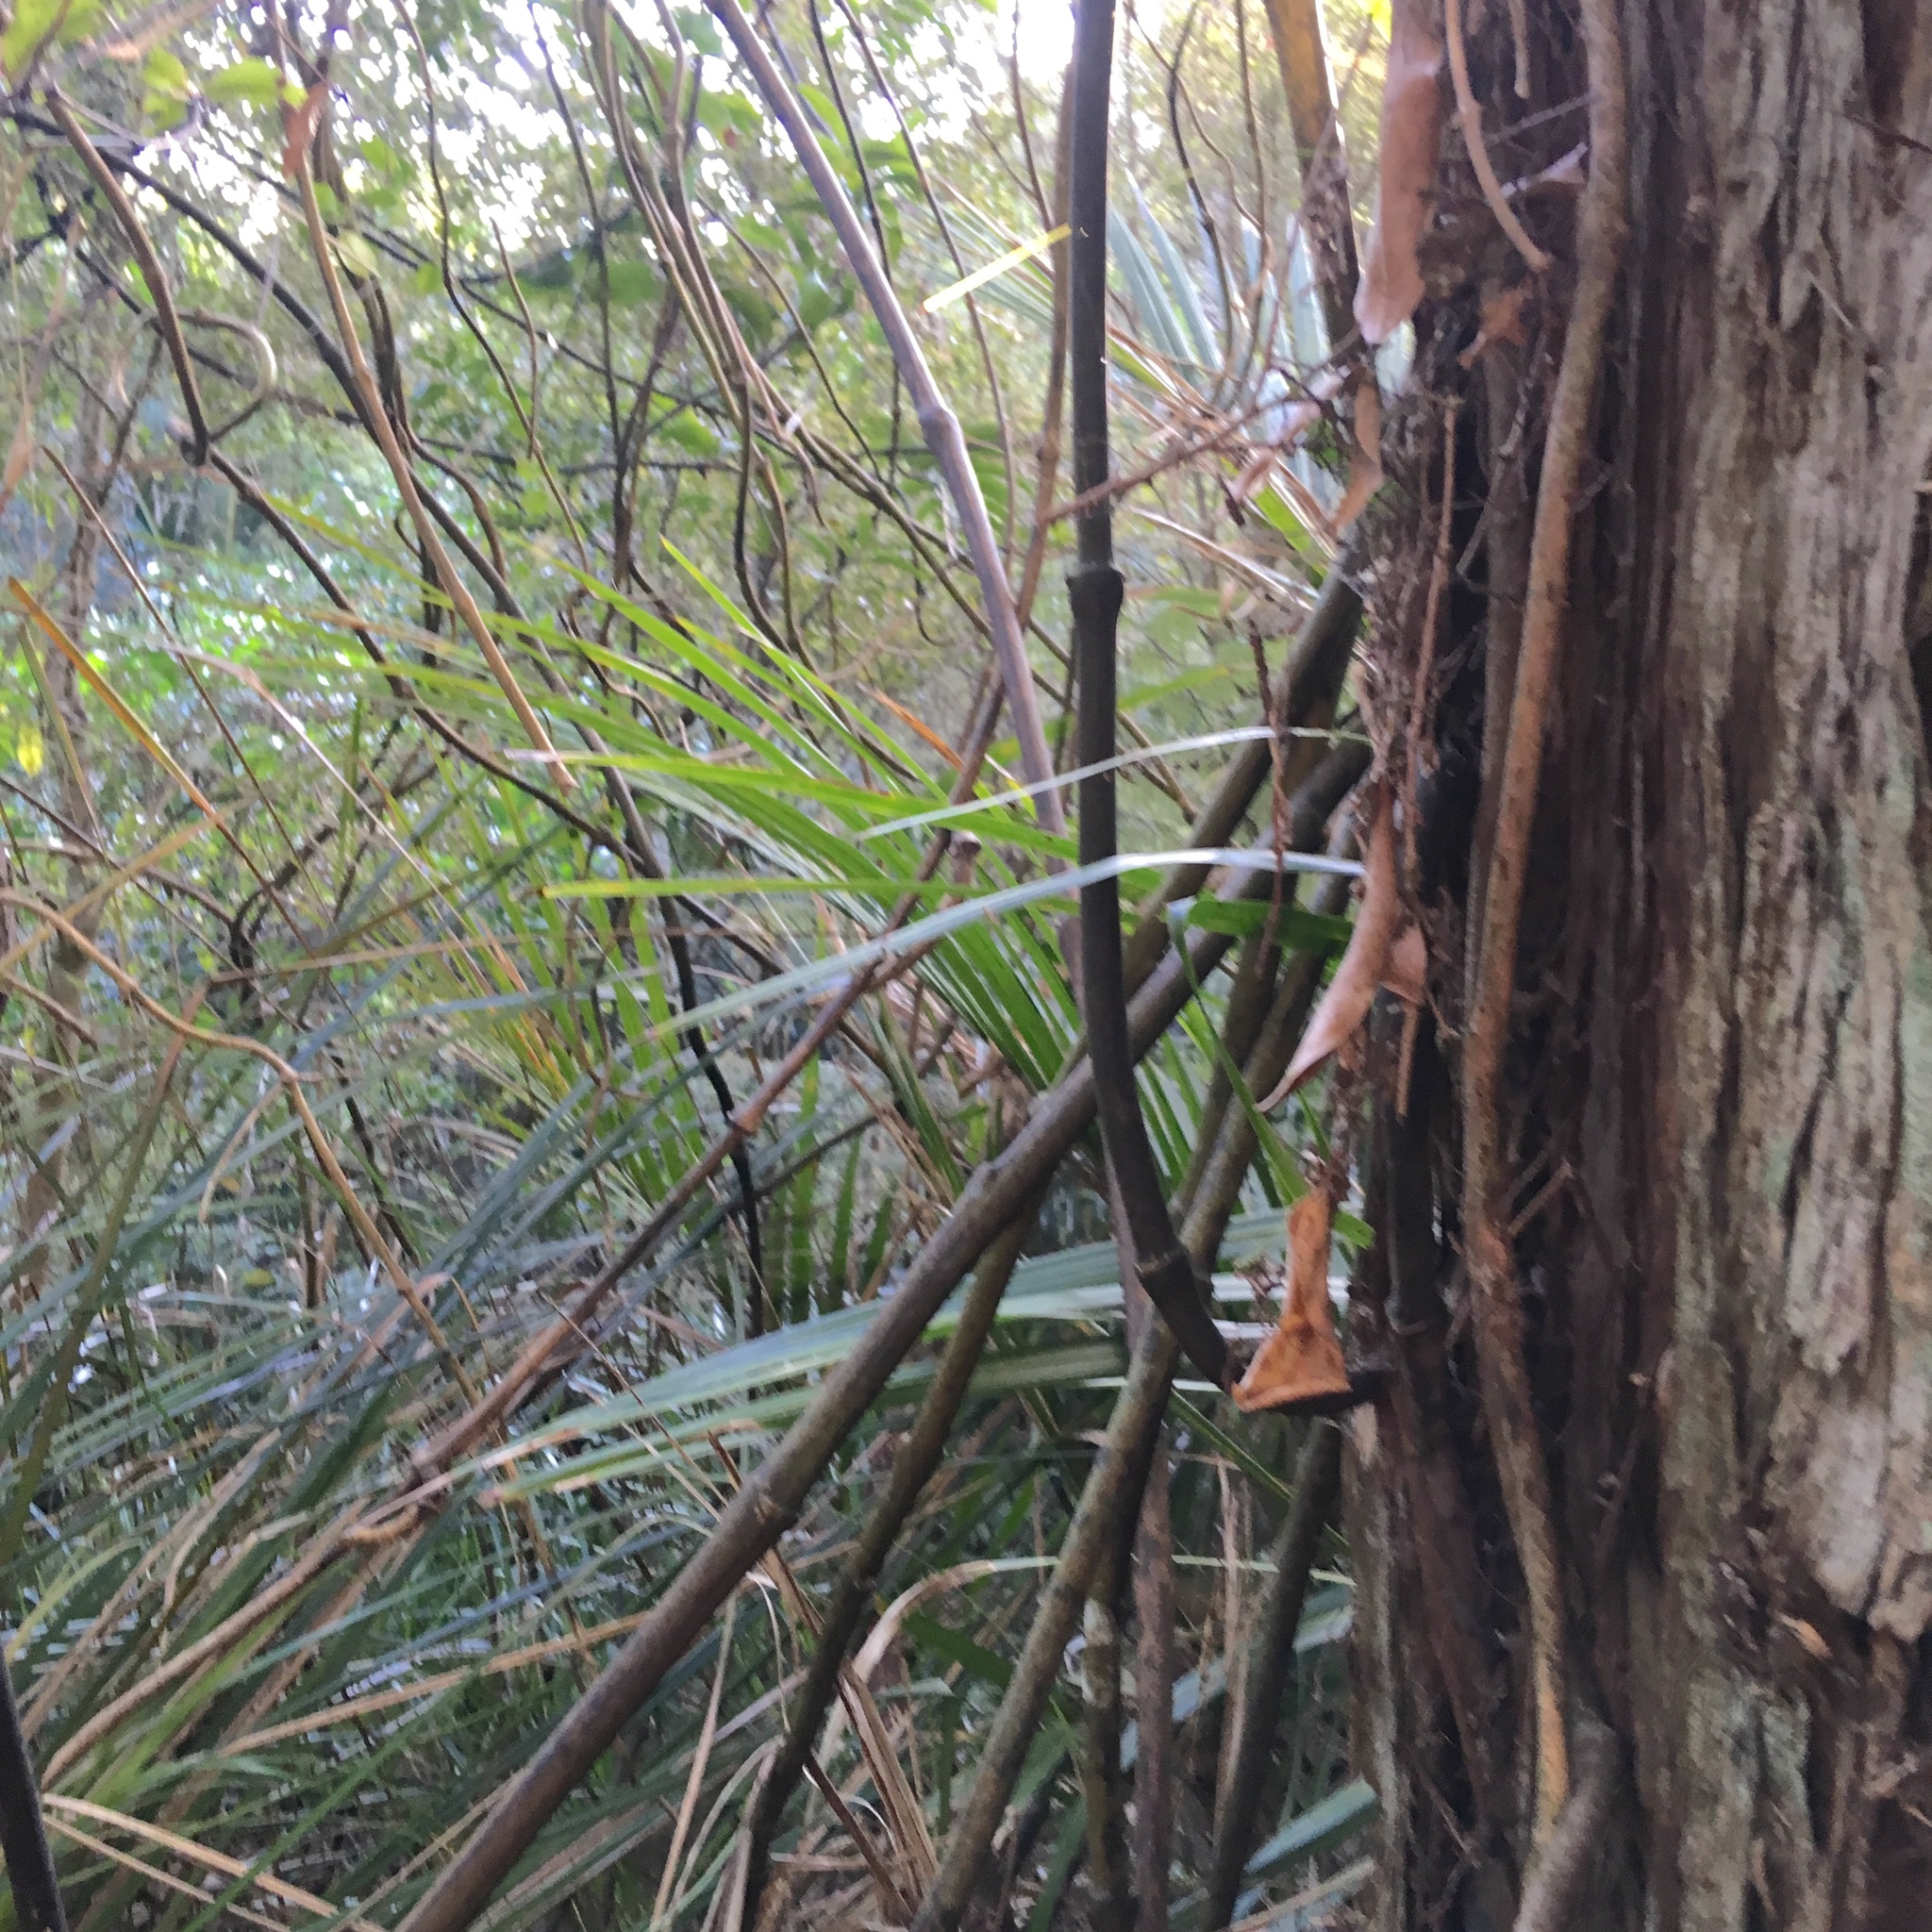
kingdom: Plantae
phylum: Tracheophyta
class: Liliopsida
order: Liliales
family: Ripogonaceae
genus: Ripogonum
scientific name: Ripogonum scandens
